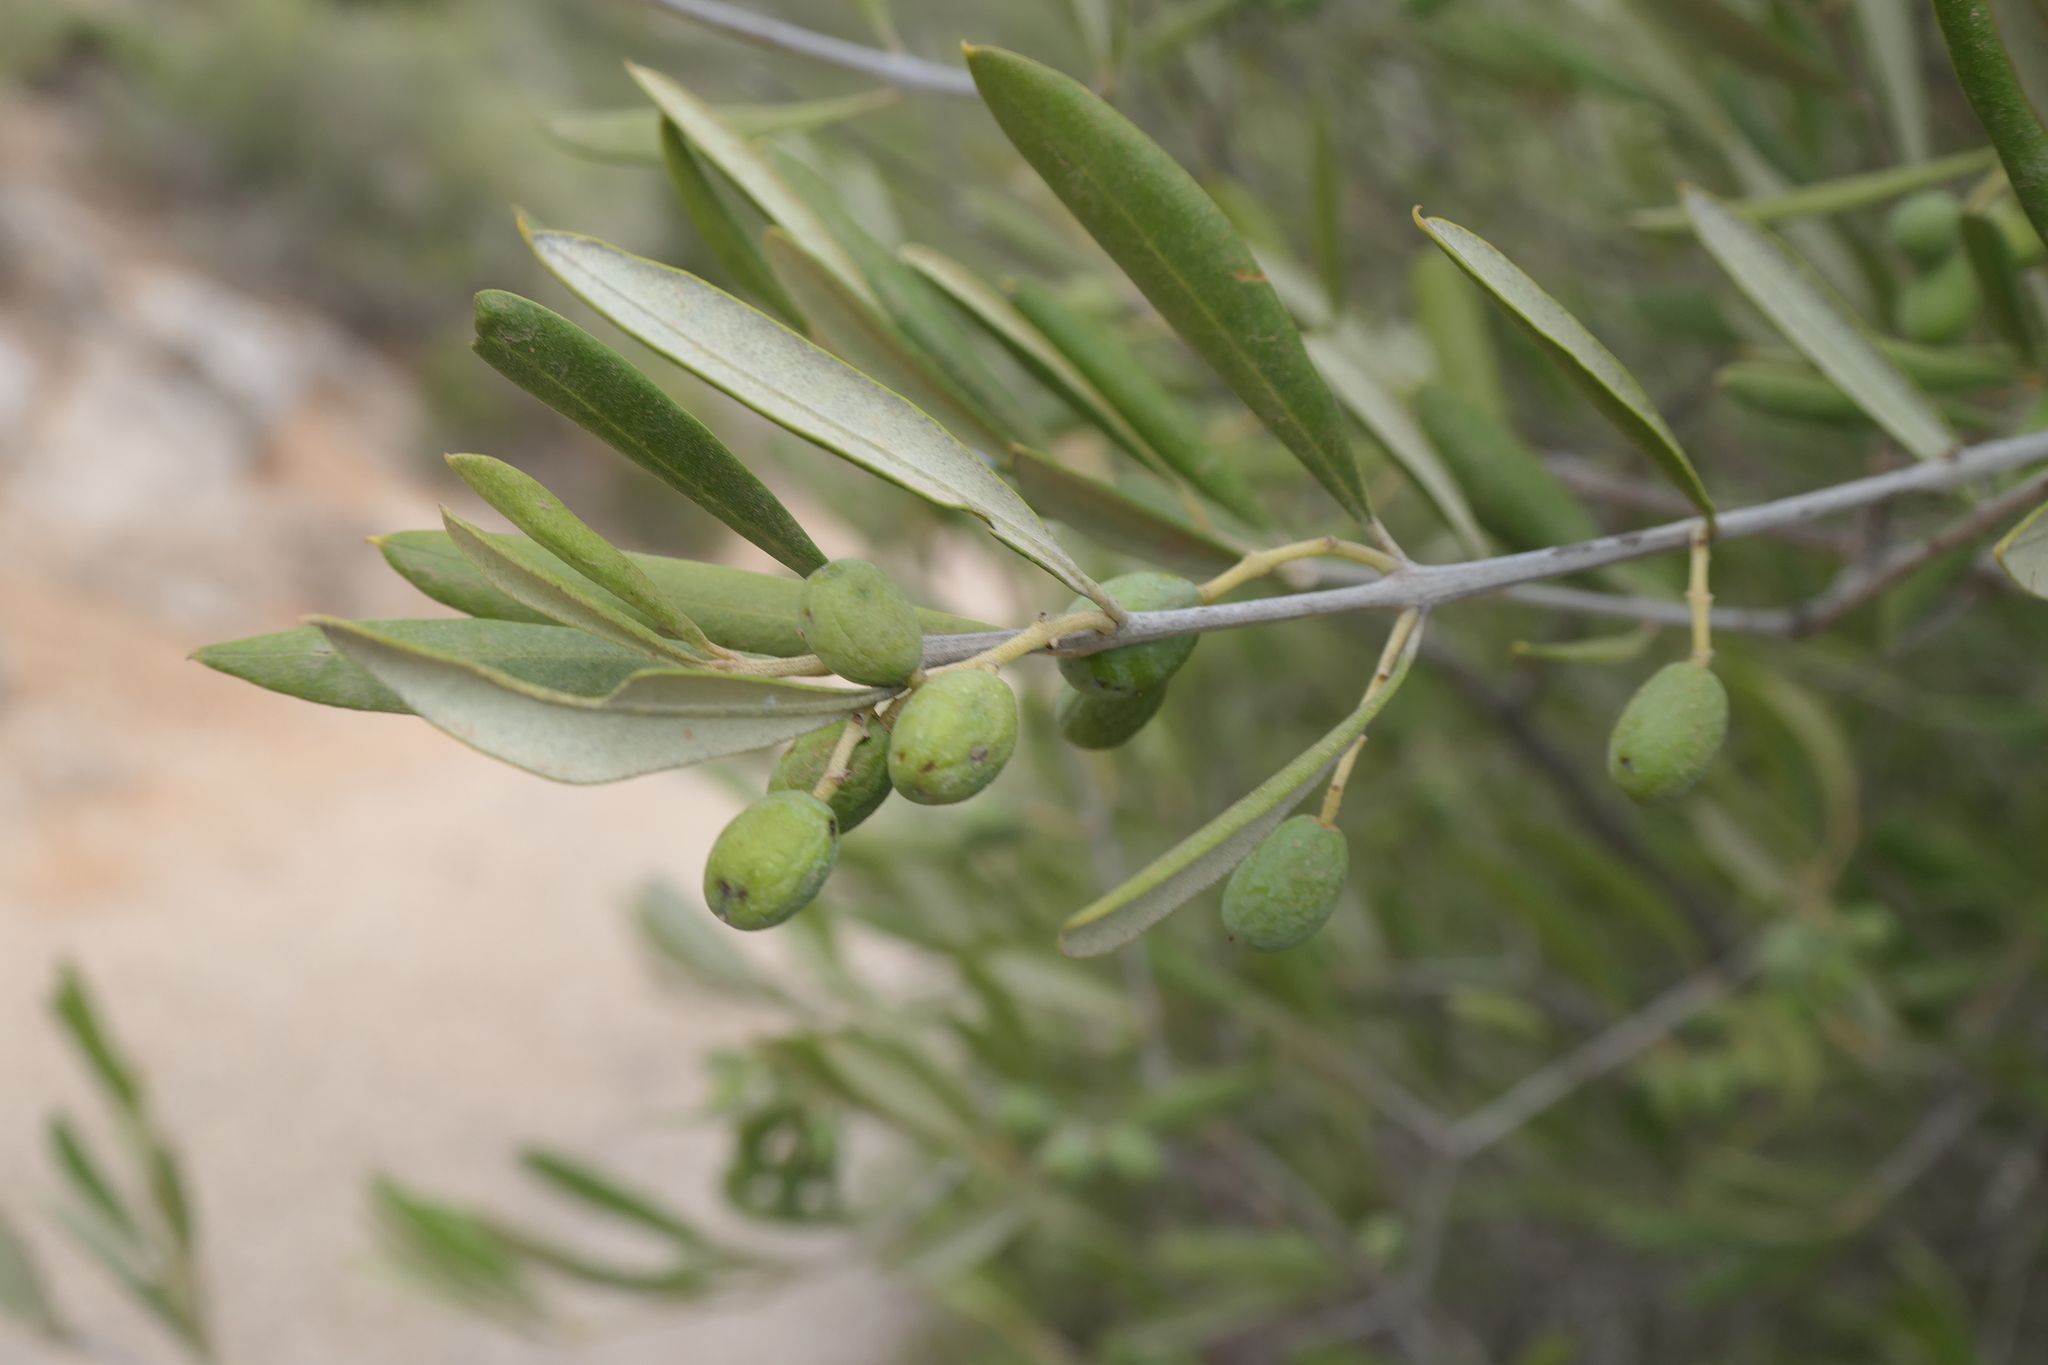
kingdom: Plantae
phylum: Tracheophyta
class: Magnoliopsida
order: Lamiales
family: Oleaceae
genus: Olea
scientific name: Olea europaea
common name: Olive
